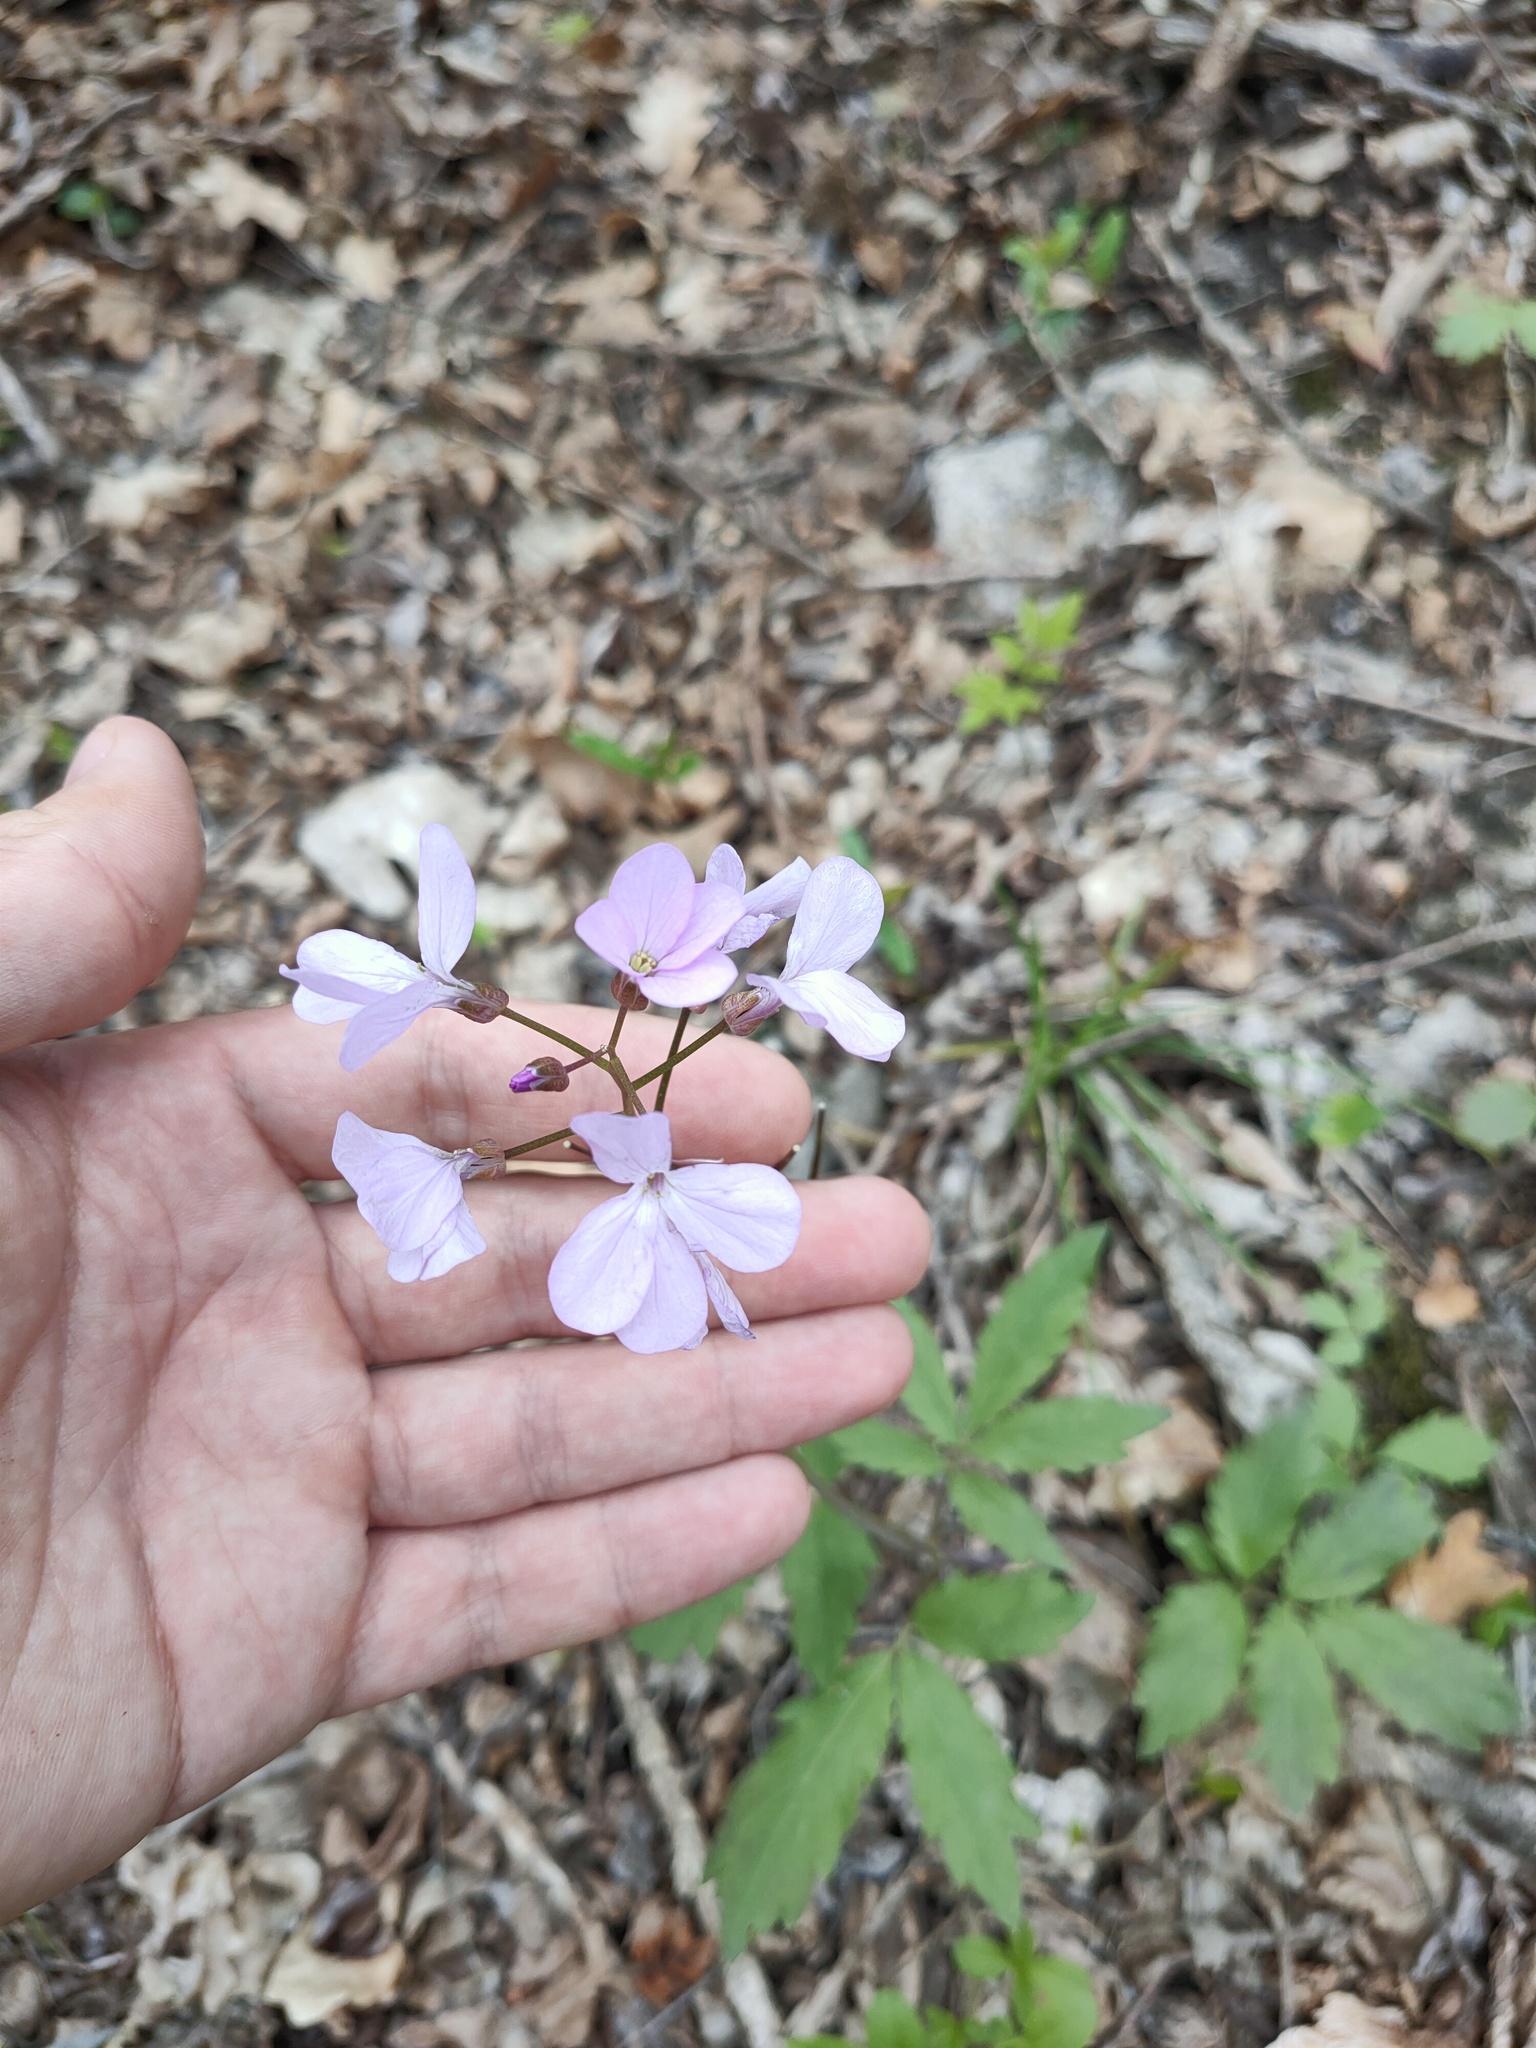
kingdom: Plantae
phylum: Tracheophyta
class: Magnoliopsida
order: Brassicales
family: Brassicaceae
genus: Cardamine
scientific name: Cardamine bulbifera
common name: Coralroot bittercress
